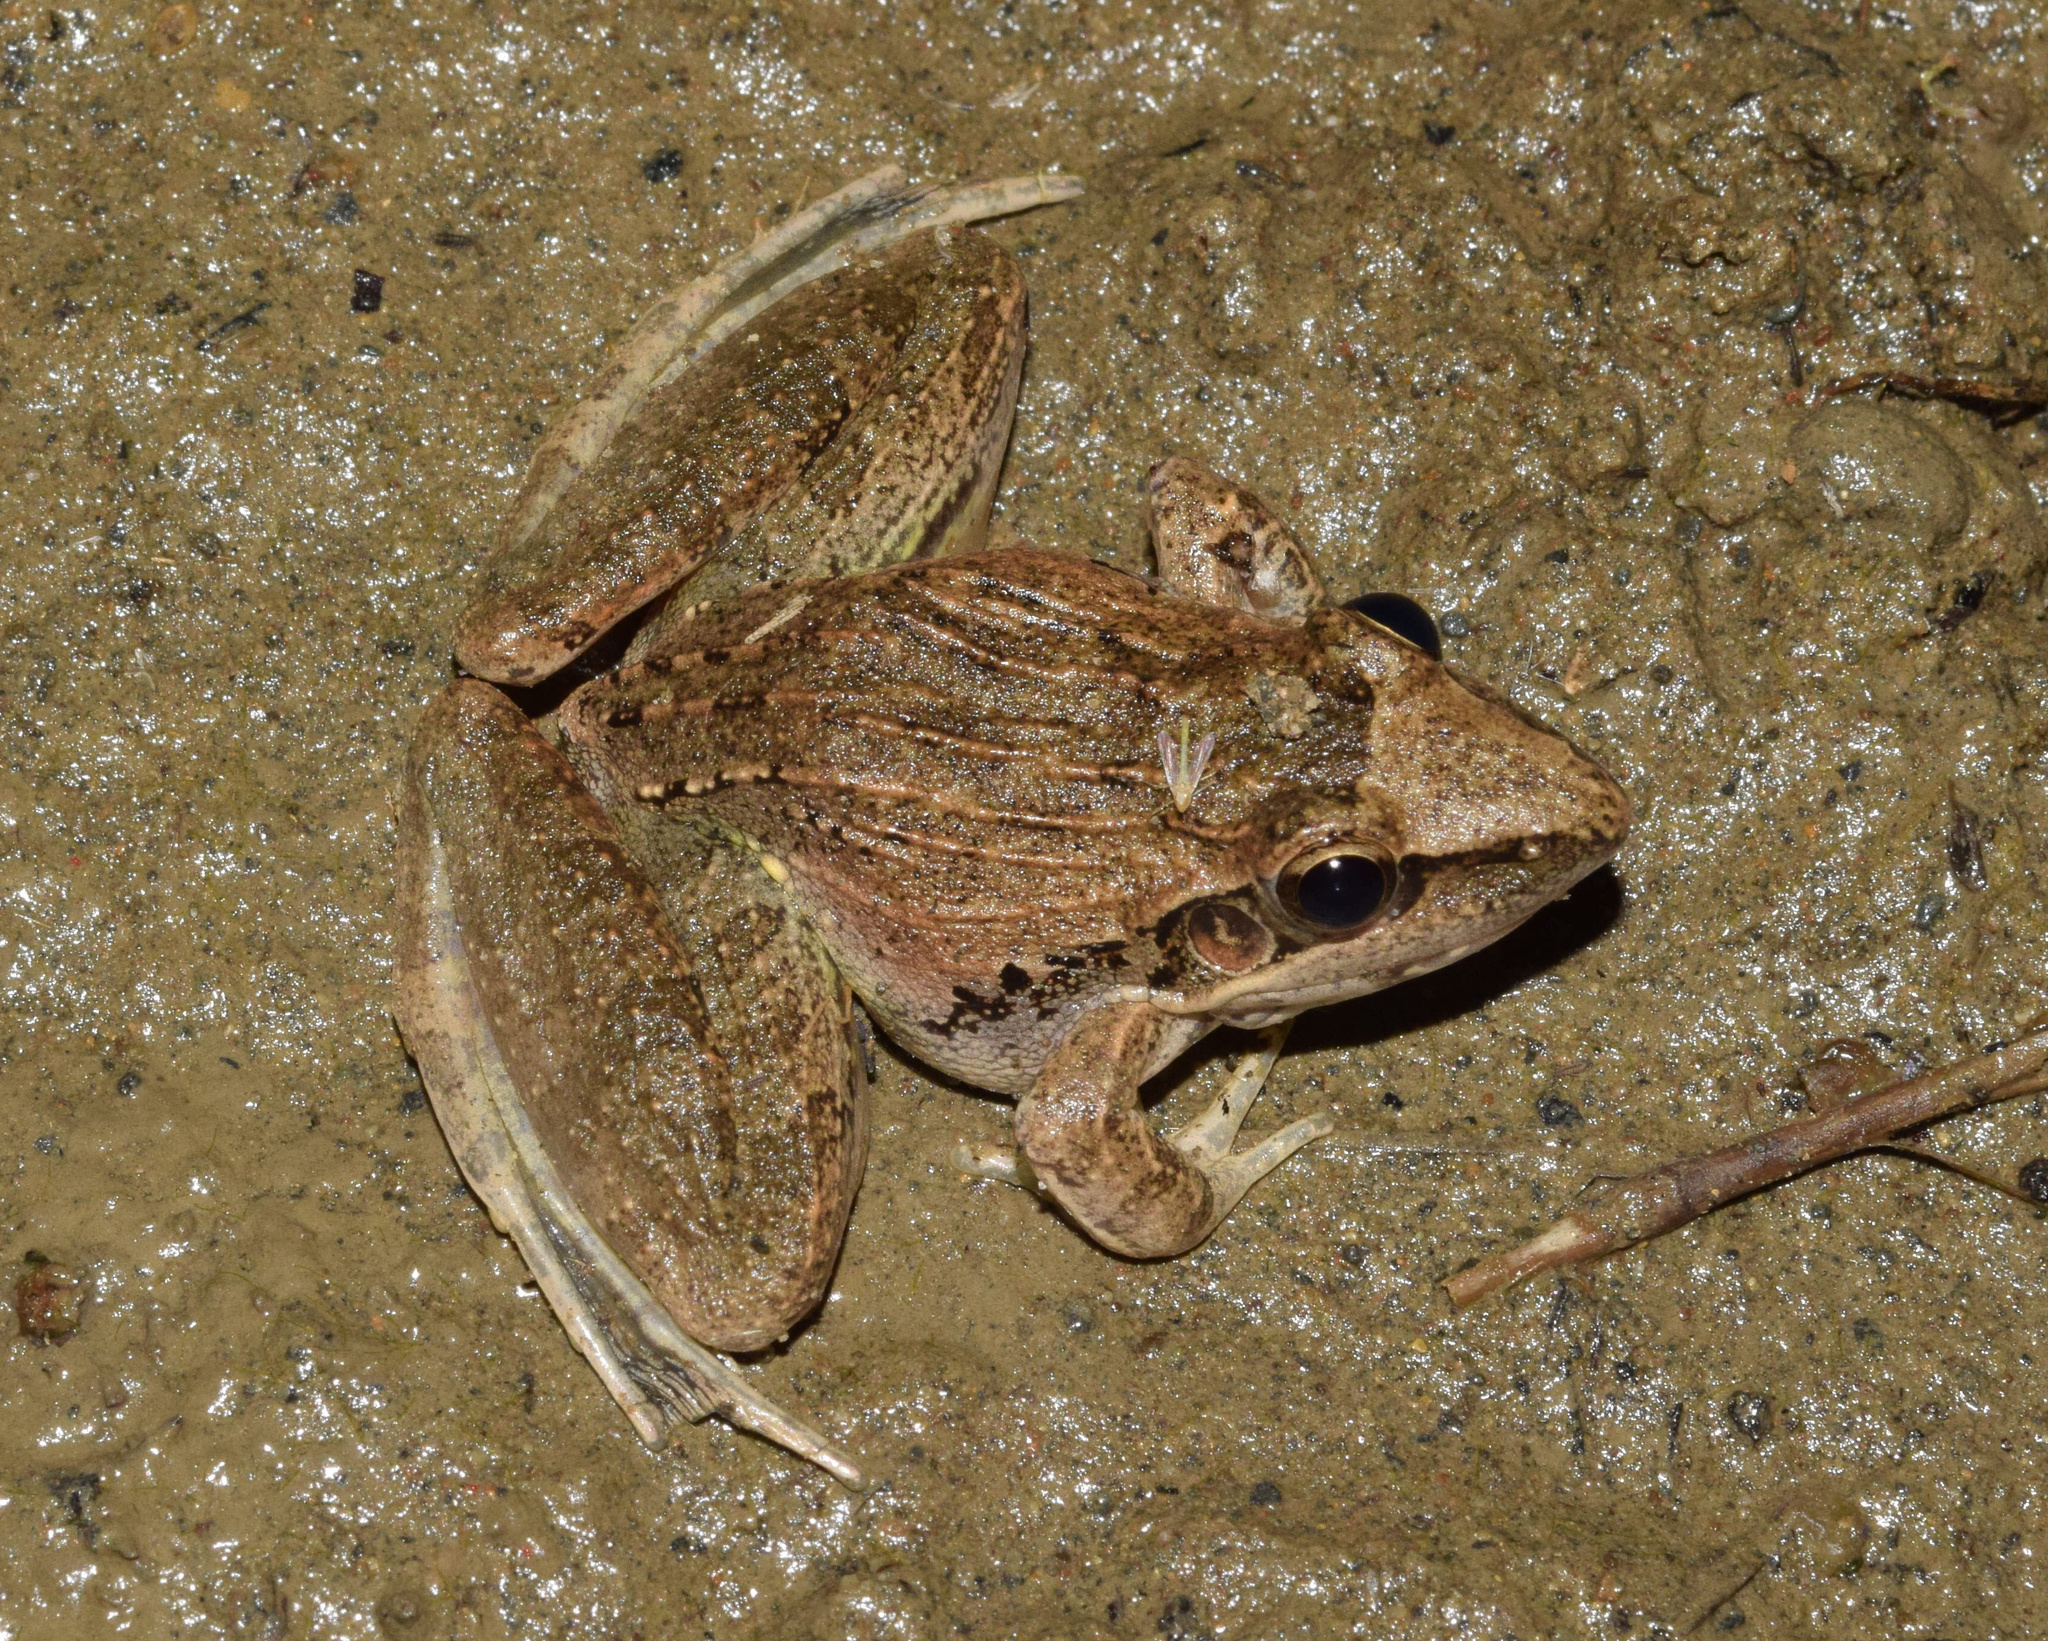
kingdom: Animalia
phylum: Chordata
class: Amphibia
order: Anura
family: Ptychadenidae
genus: Ptychadena
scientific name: Ptychadena anchietae
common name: Anchieta's ridged frog
